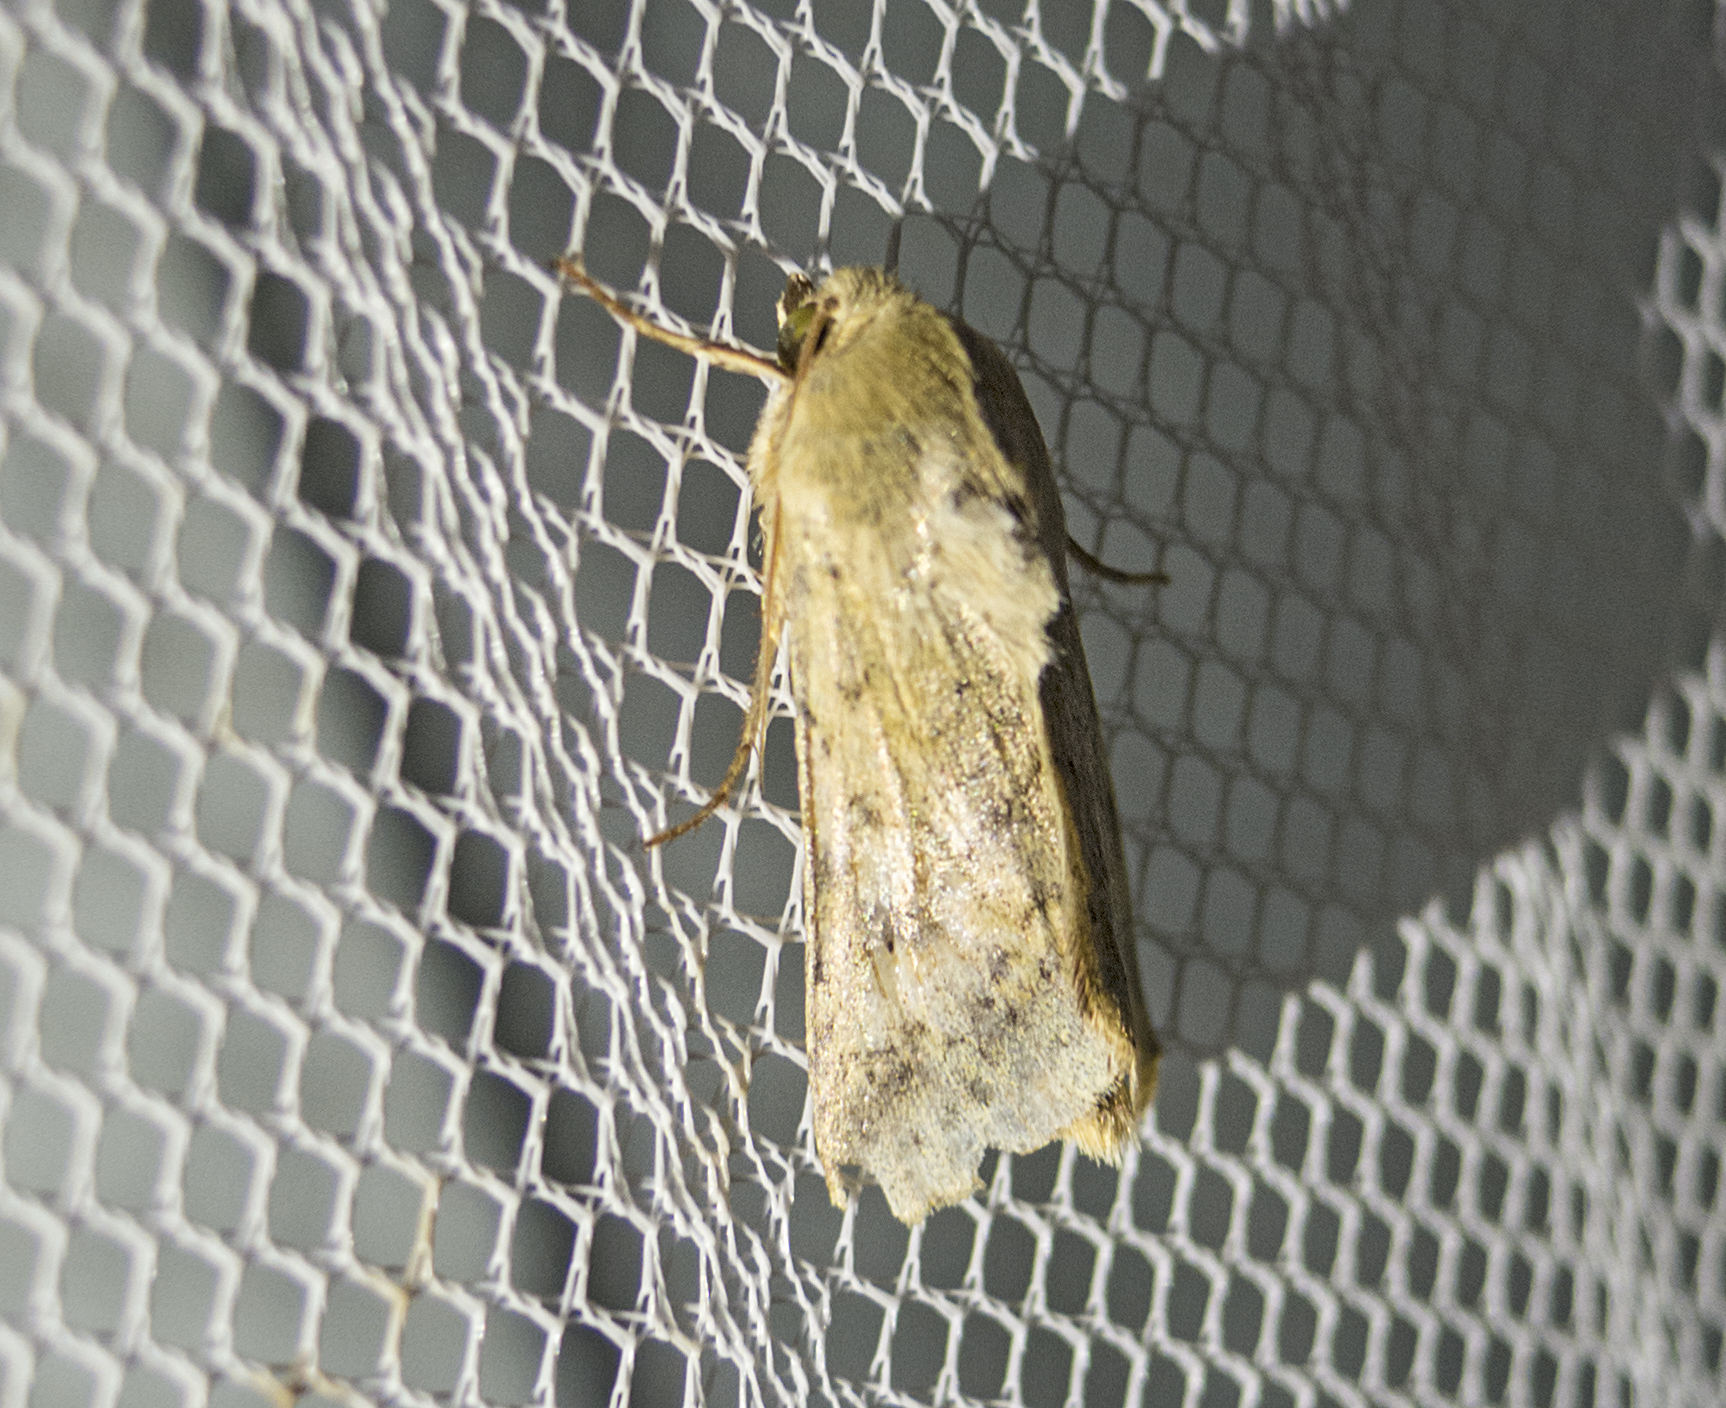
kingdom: Animalia
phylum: Arthropoda
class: Insecta
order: Lepidoptera
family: Noctuidae
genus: Helicoverpa
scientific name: Helicoverpa armigera
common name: Cotton bollworm
